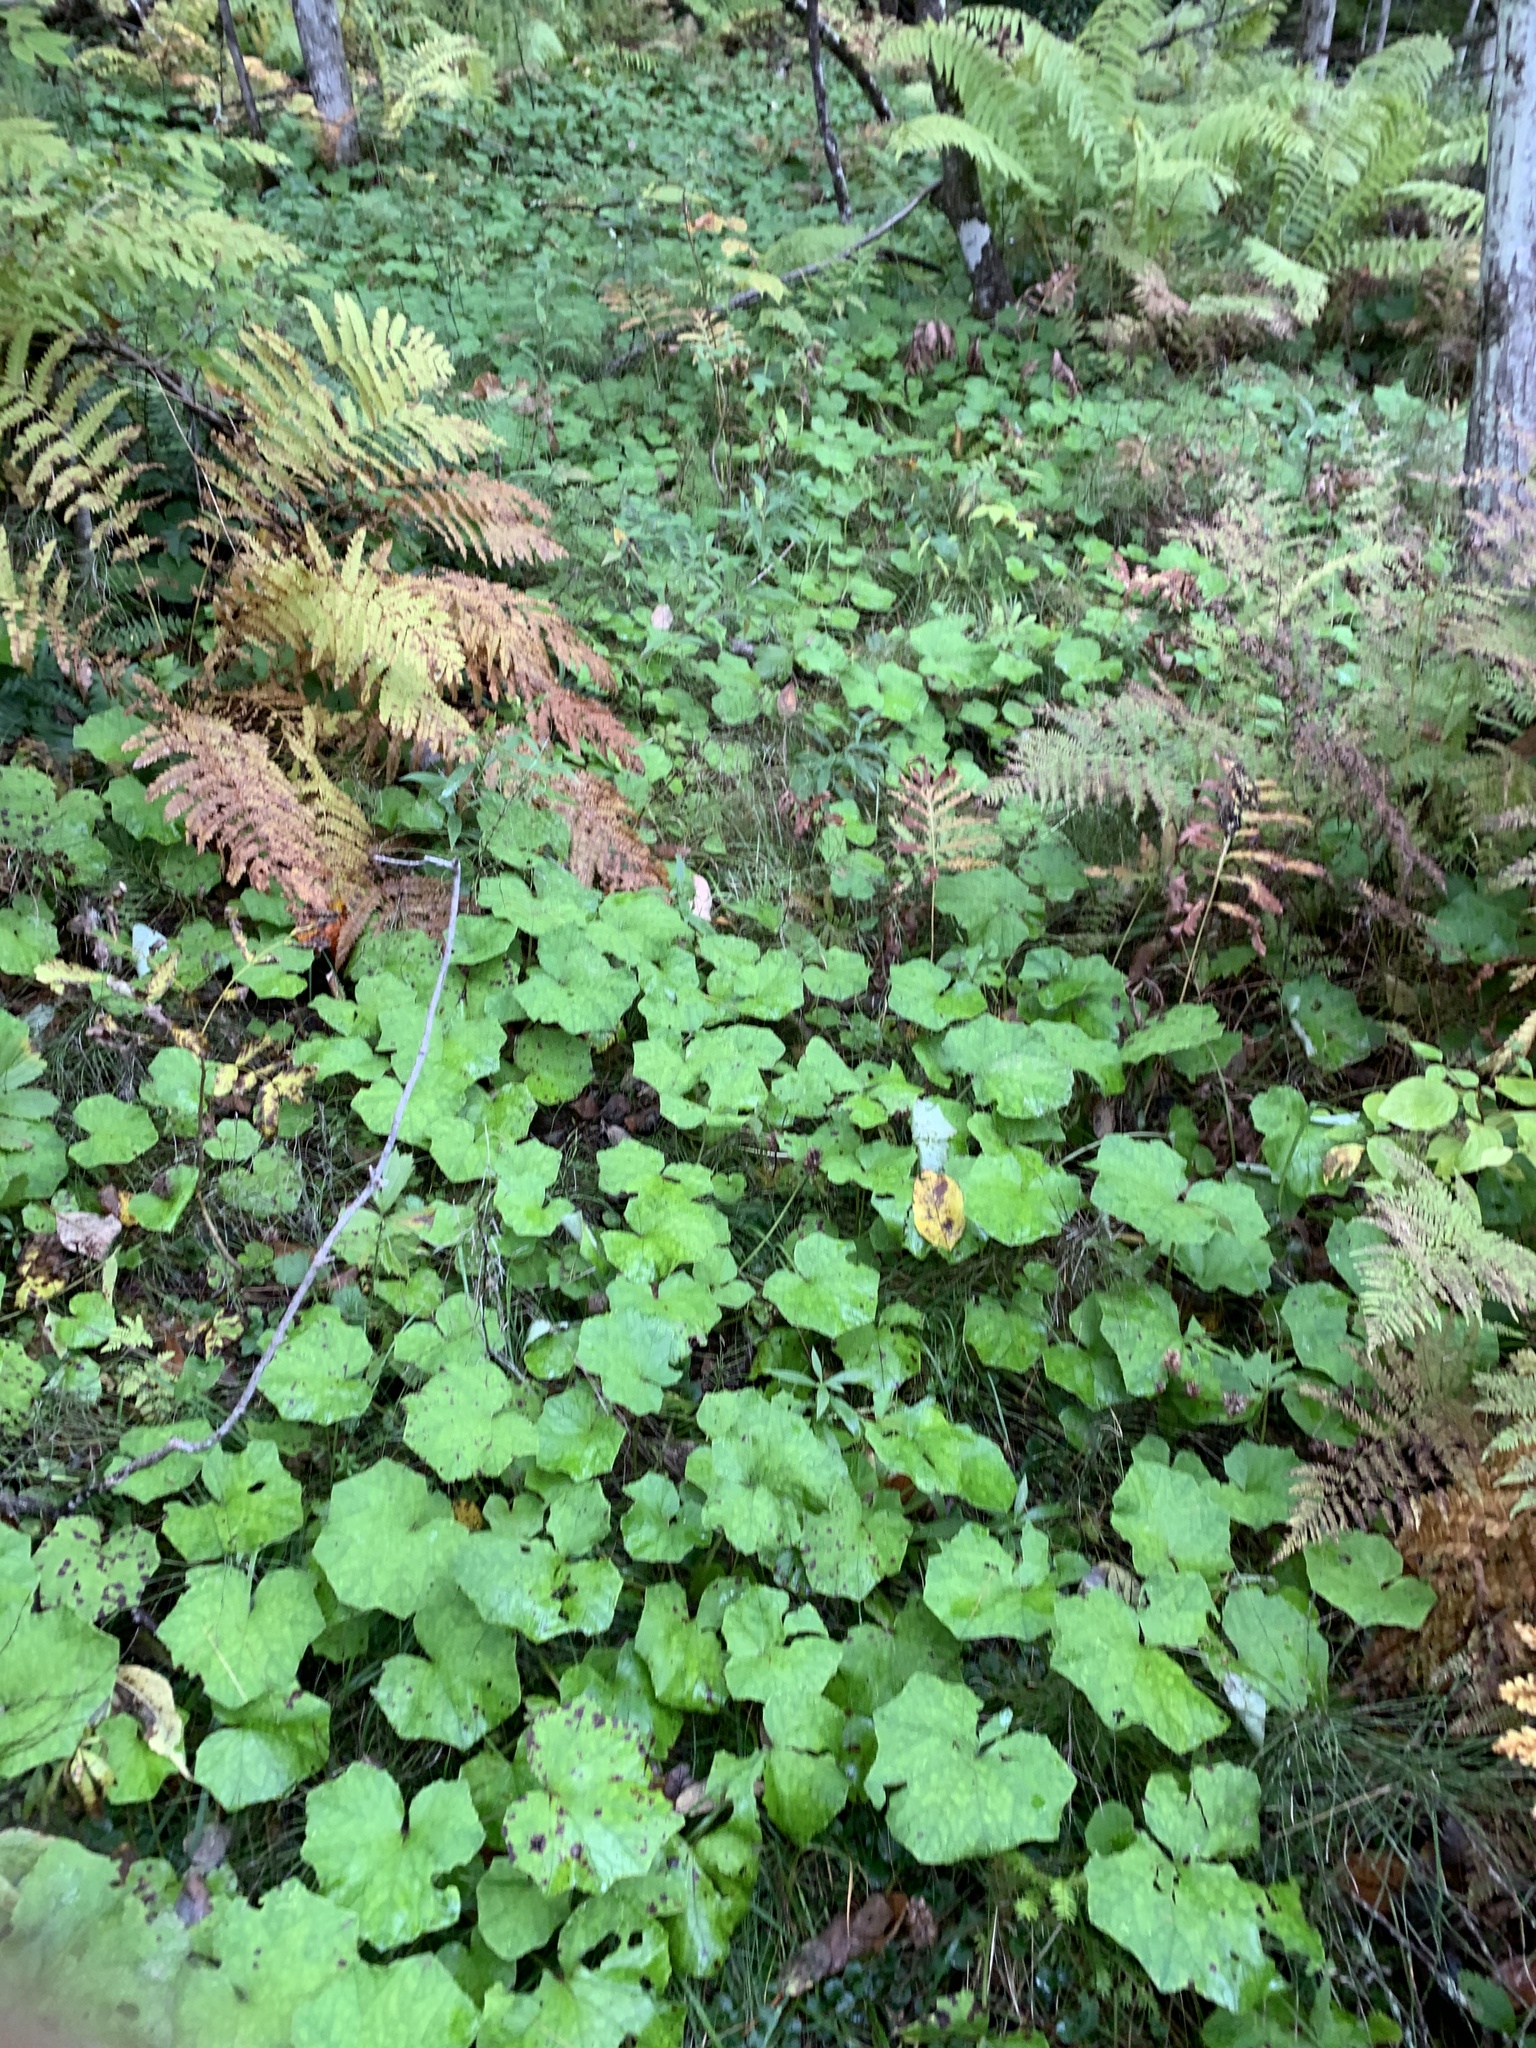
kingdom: Plantae
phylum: Tracheophyta
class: Magnoliopsida
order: Asterales
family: Asteraceae
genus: Tussilago
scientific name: Tussilago farfara
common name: Coltsfoot
